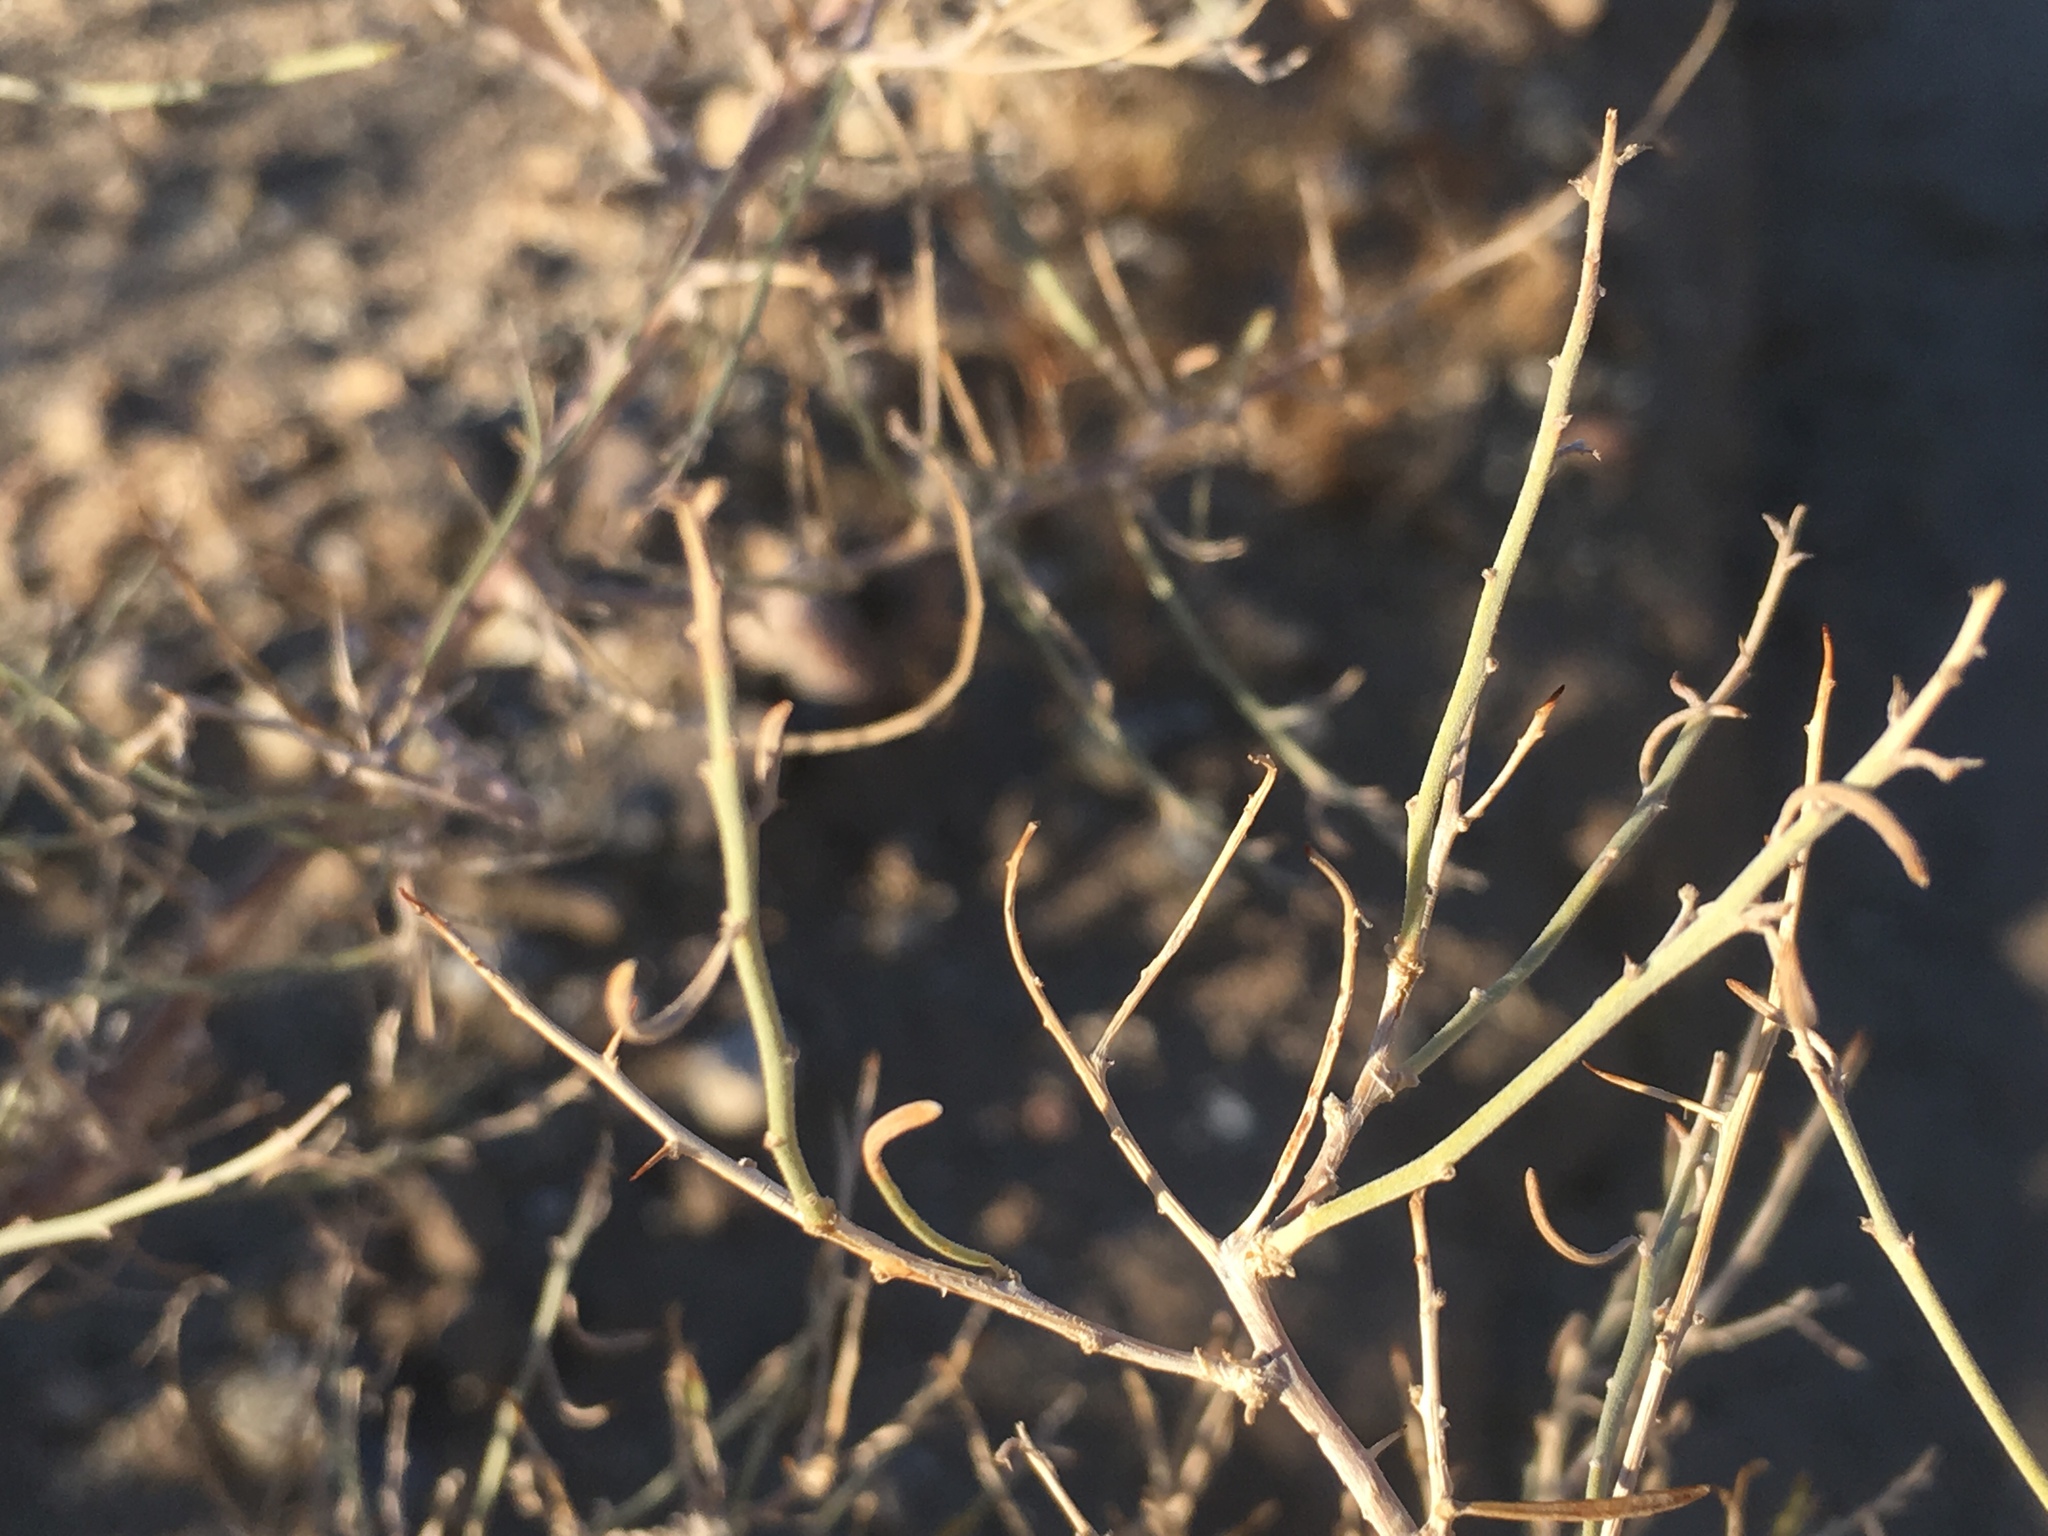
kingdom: Plantae
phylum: Tracheophyta
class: Magnoliopsida
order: Fabales
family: Fabaceae
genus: Psorothamnus
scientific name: Psorothamnus schottii
